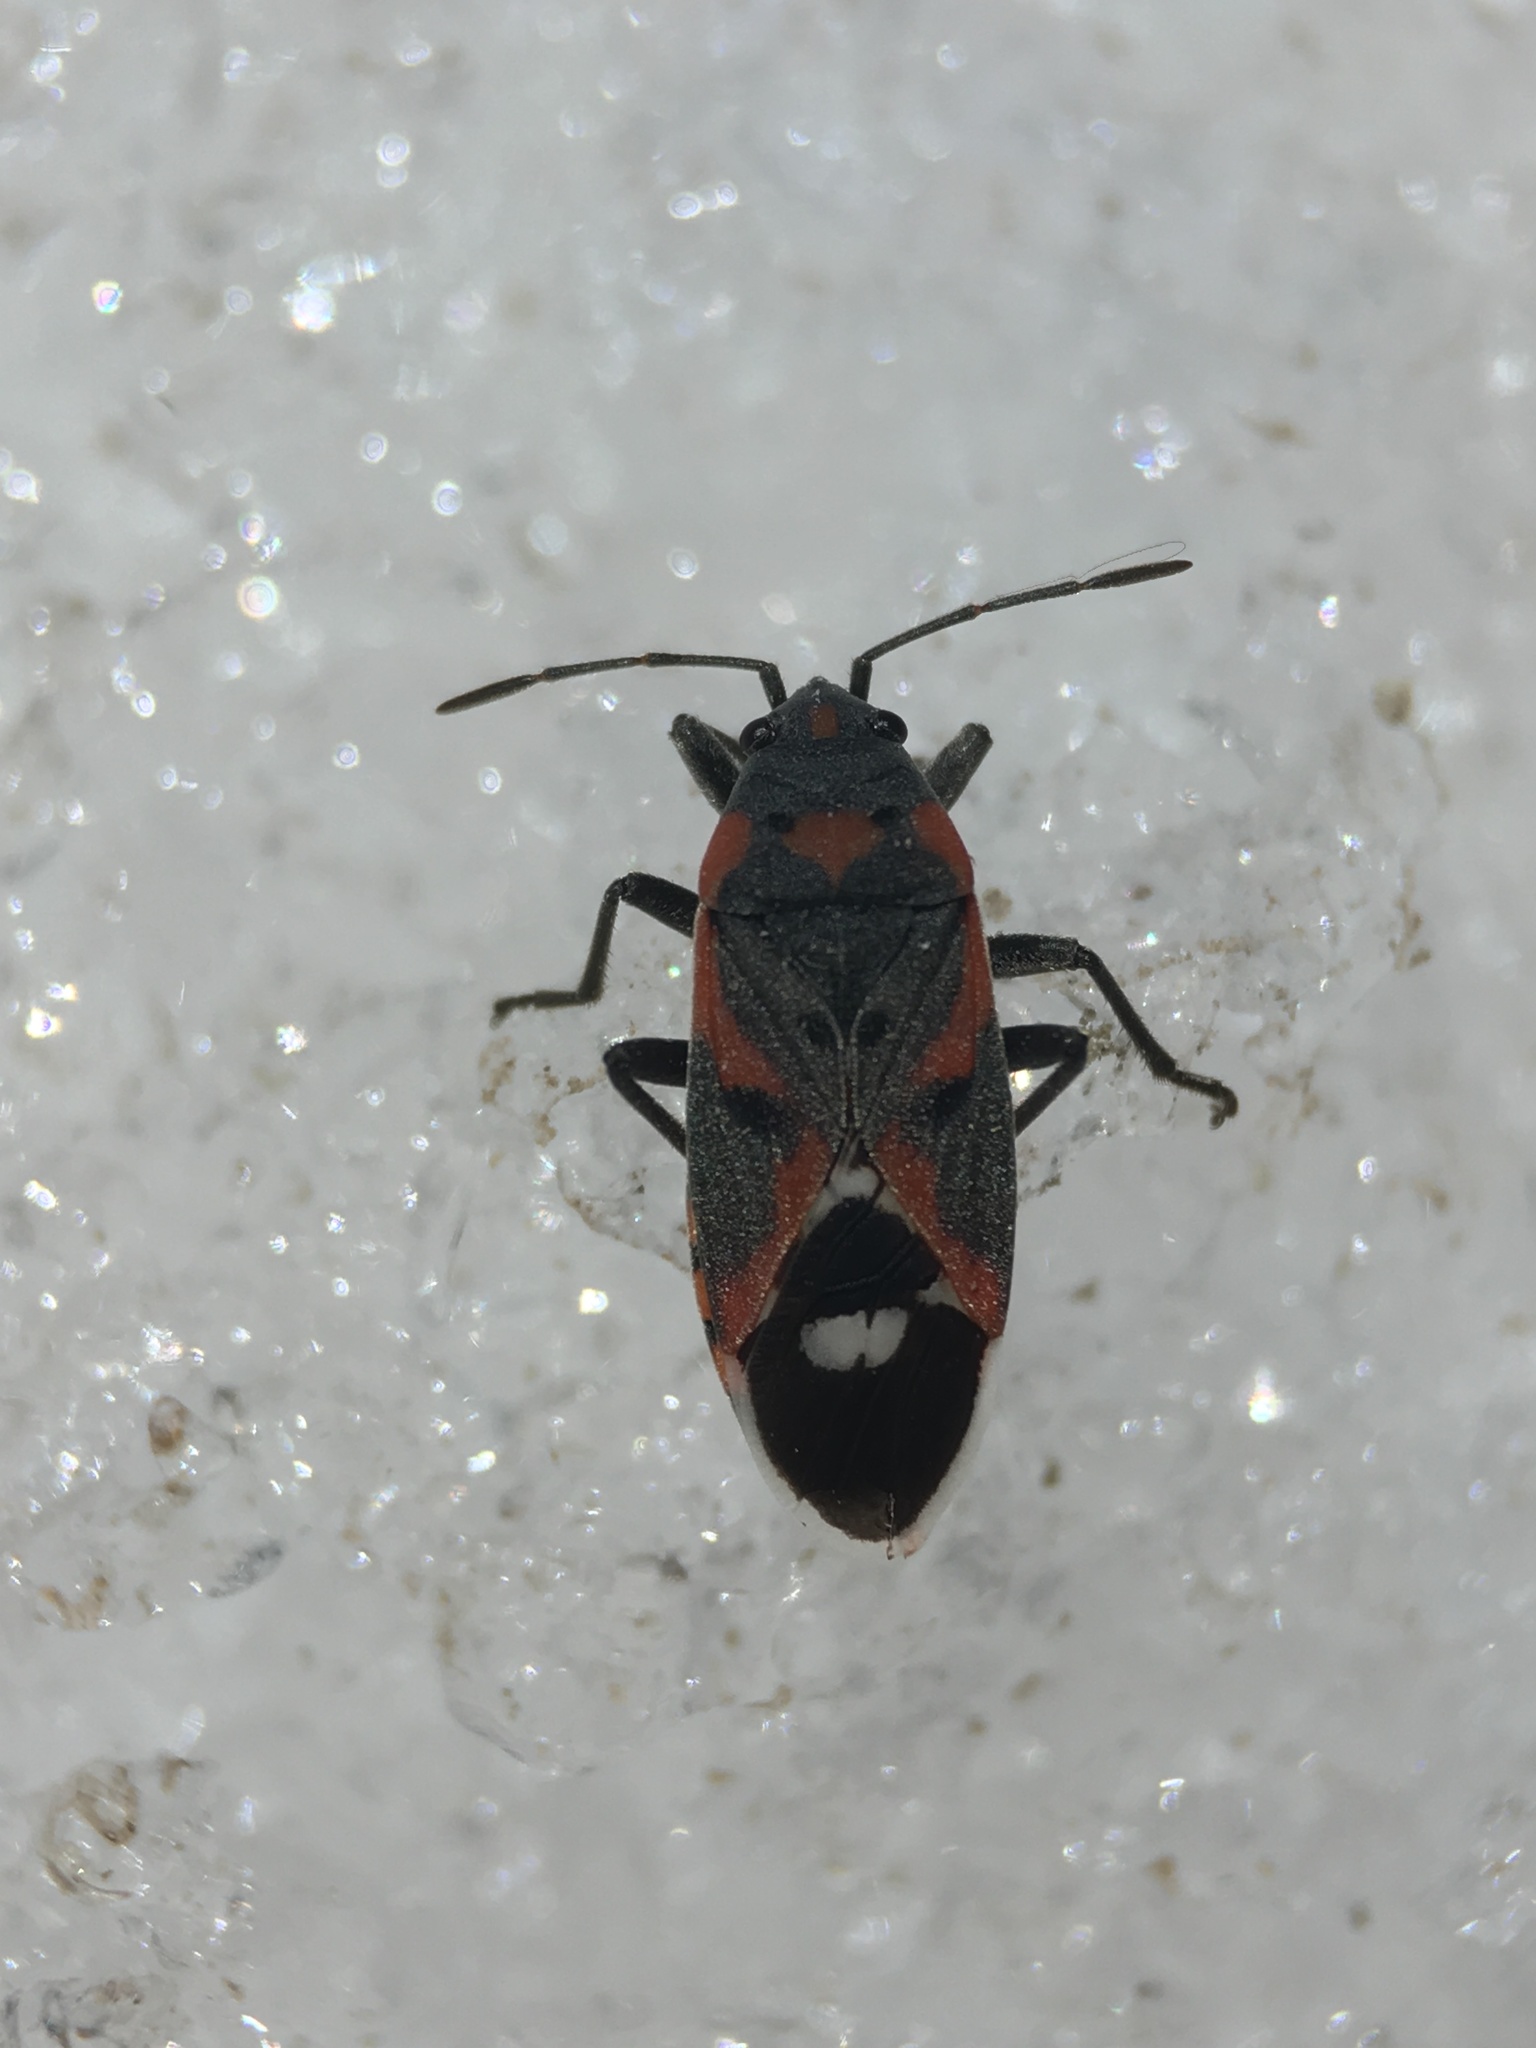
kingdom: Animalia
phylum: Arthropoda
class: Insecta
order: Hemiptera
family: Lygaeidae
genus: Lygaeus
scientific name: Lygaeus kalmii
